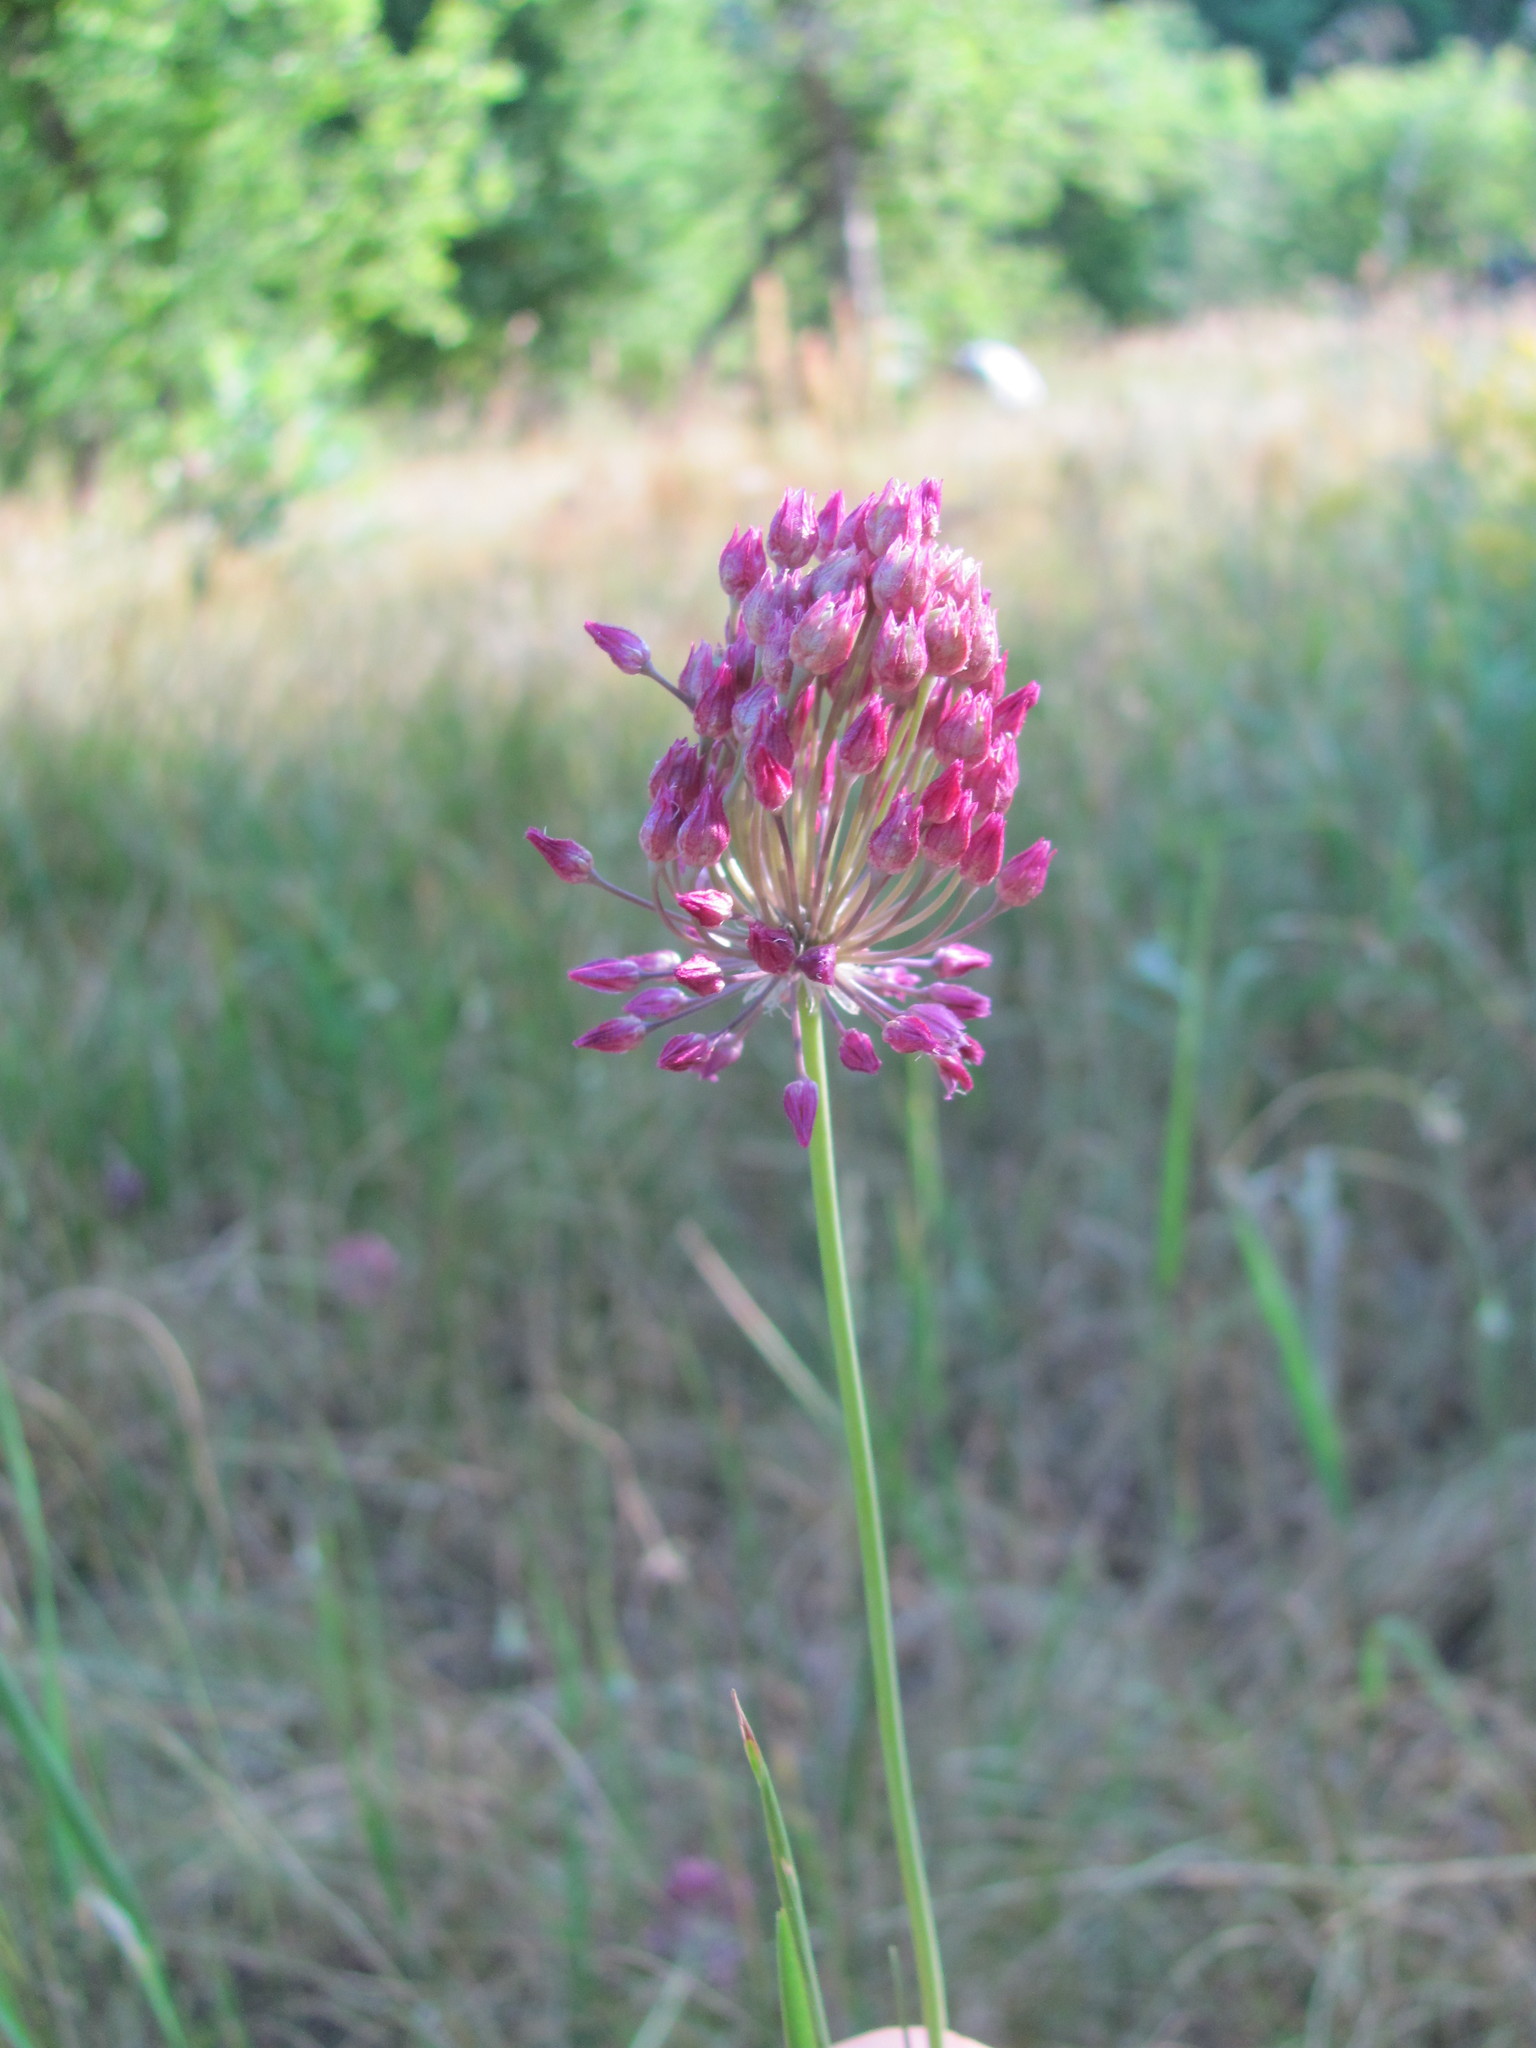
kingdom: Plantae
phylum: Tracheophyta
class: Liliopsida
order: Asparagales
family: Amaryllidaceae
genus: Allium
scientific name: Allium rotundum
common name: Sand leek
